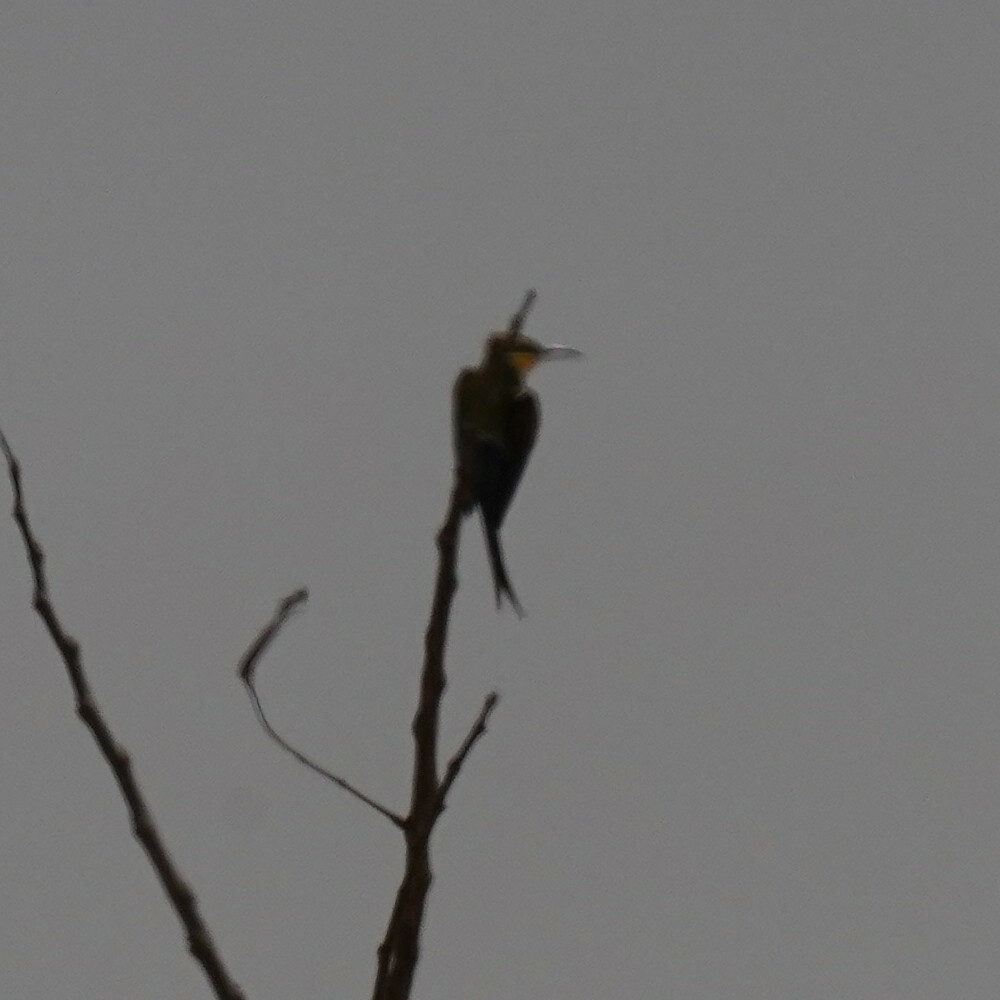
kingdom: Animalia
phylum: Chordata
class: Aves
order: Coraciiformes
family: Meropidae
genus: Merops
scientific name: Merops hirundineus
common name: Swallow-tailed bee-eater
